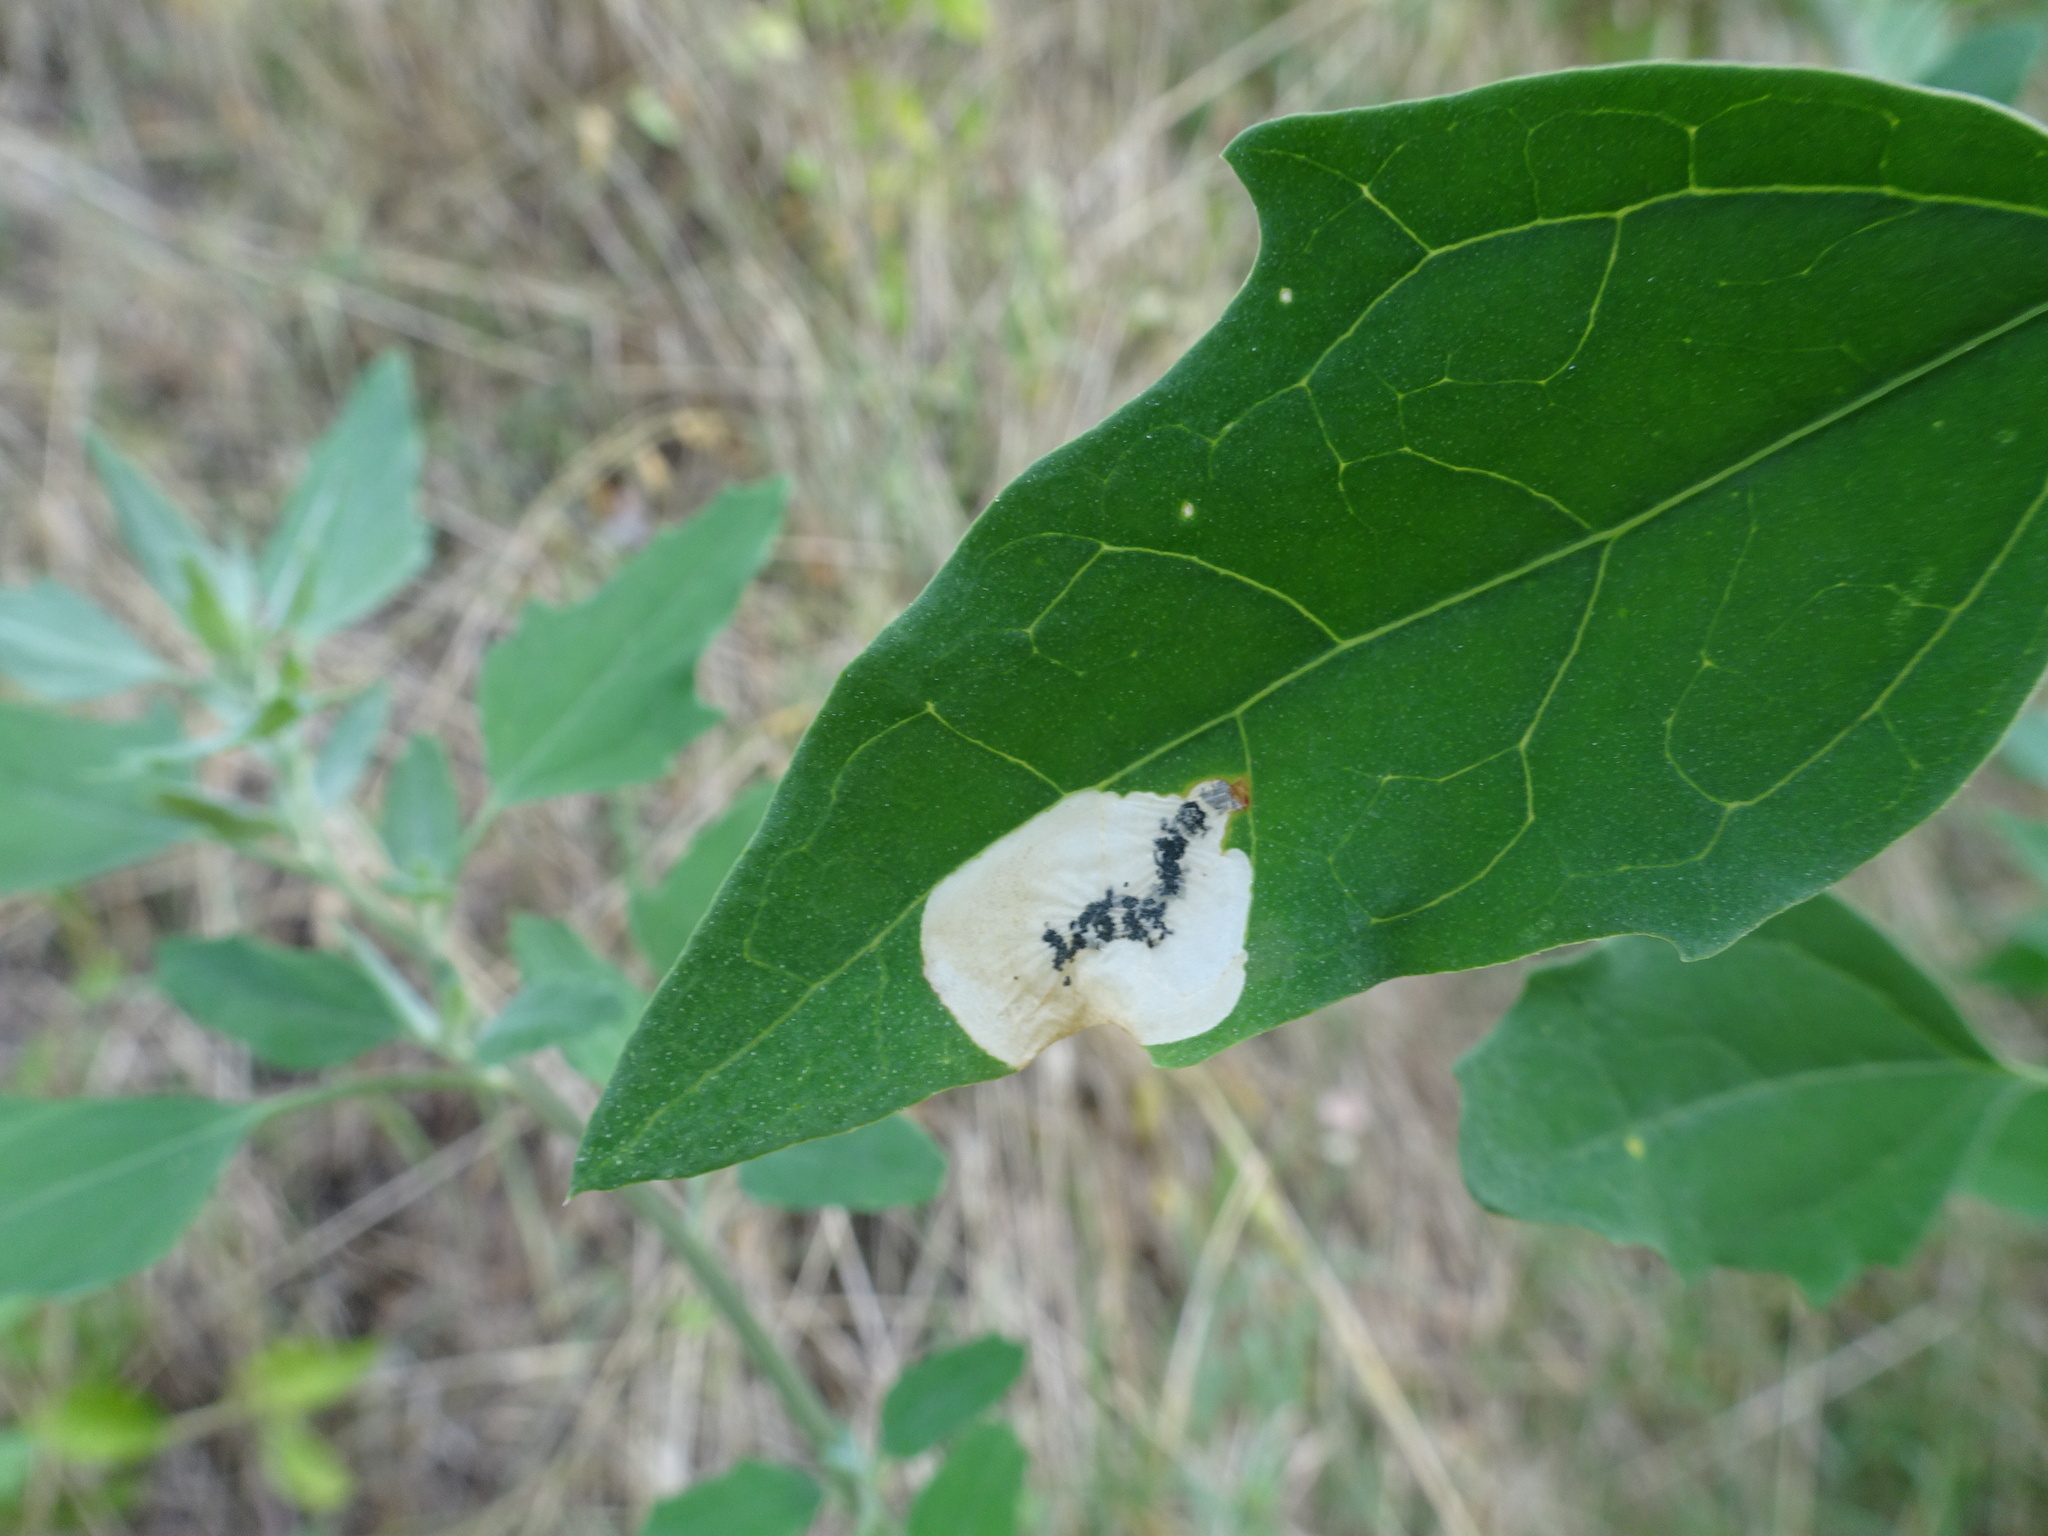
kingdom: Animalia
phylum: Arthropoda
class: Insecta
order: Lepidoptera
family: Gelechiidae
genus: Chrysoesthia
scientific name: Chrysoesthia sexguttella
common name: Moth
